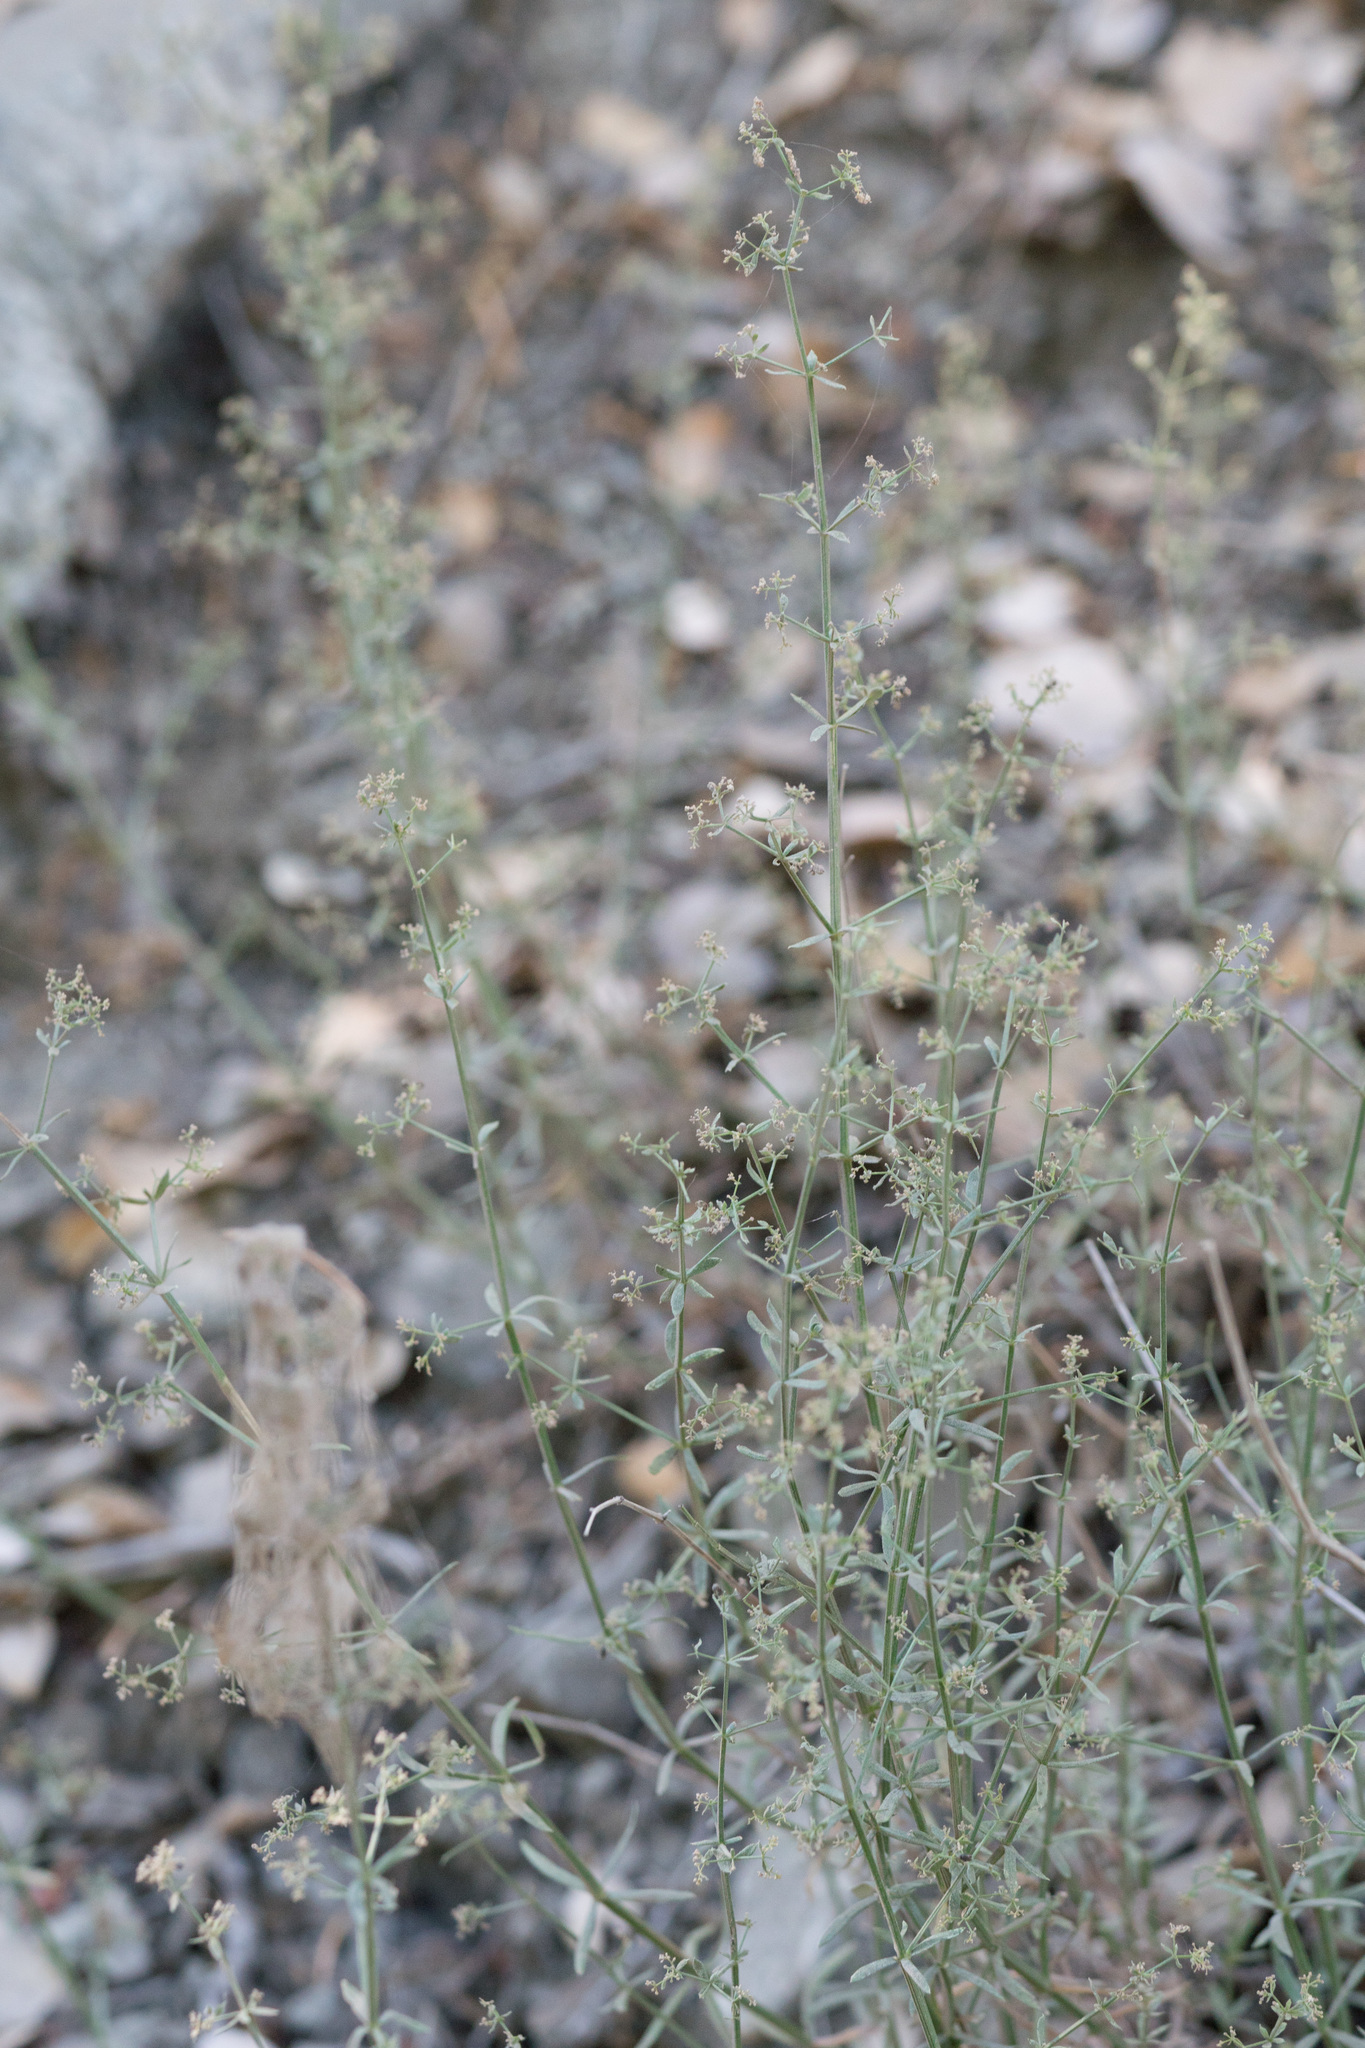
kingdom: Plantae
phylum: Tracheophyta
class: Magnoliopsida
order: Gentianales
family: Rubiaceae
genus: Galium
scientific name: Galium angustifolium
